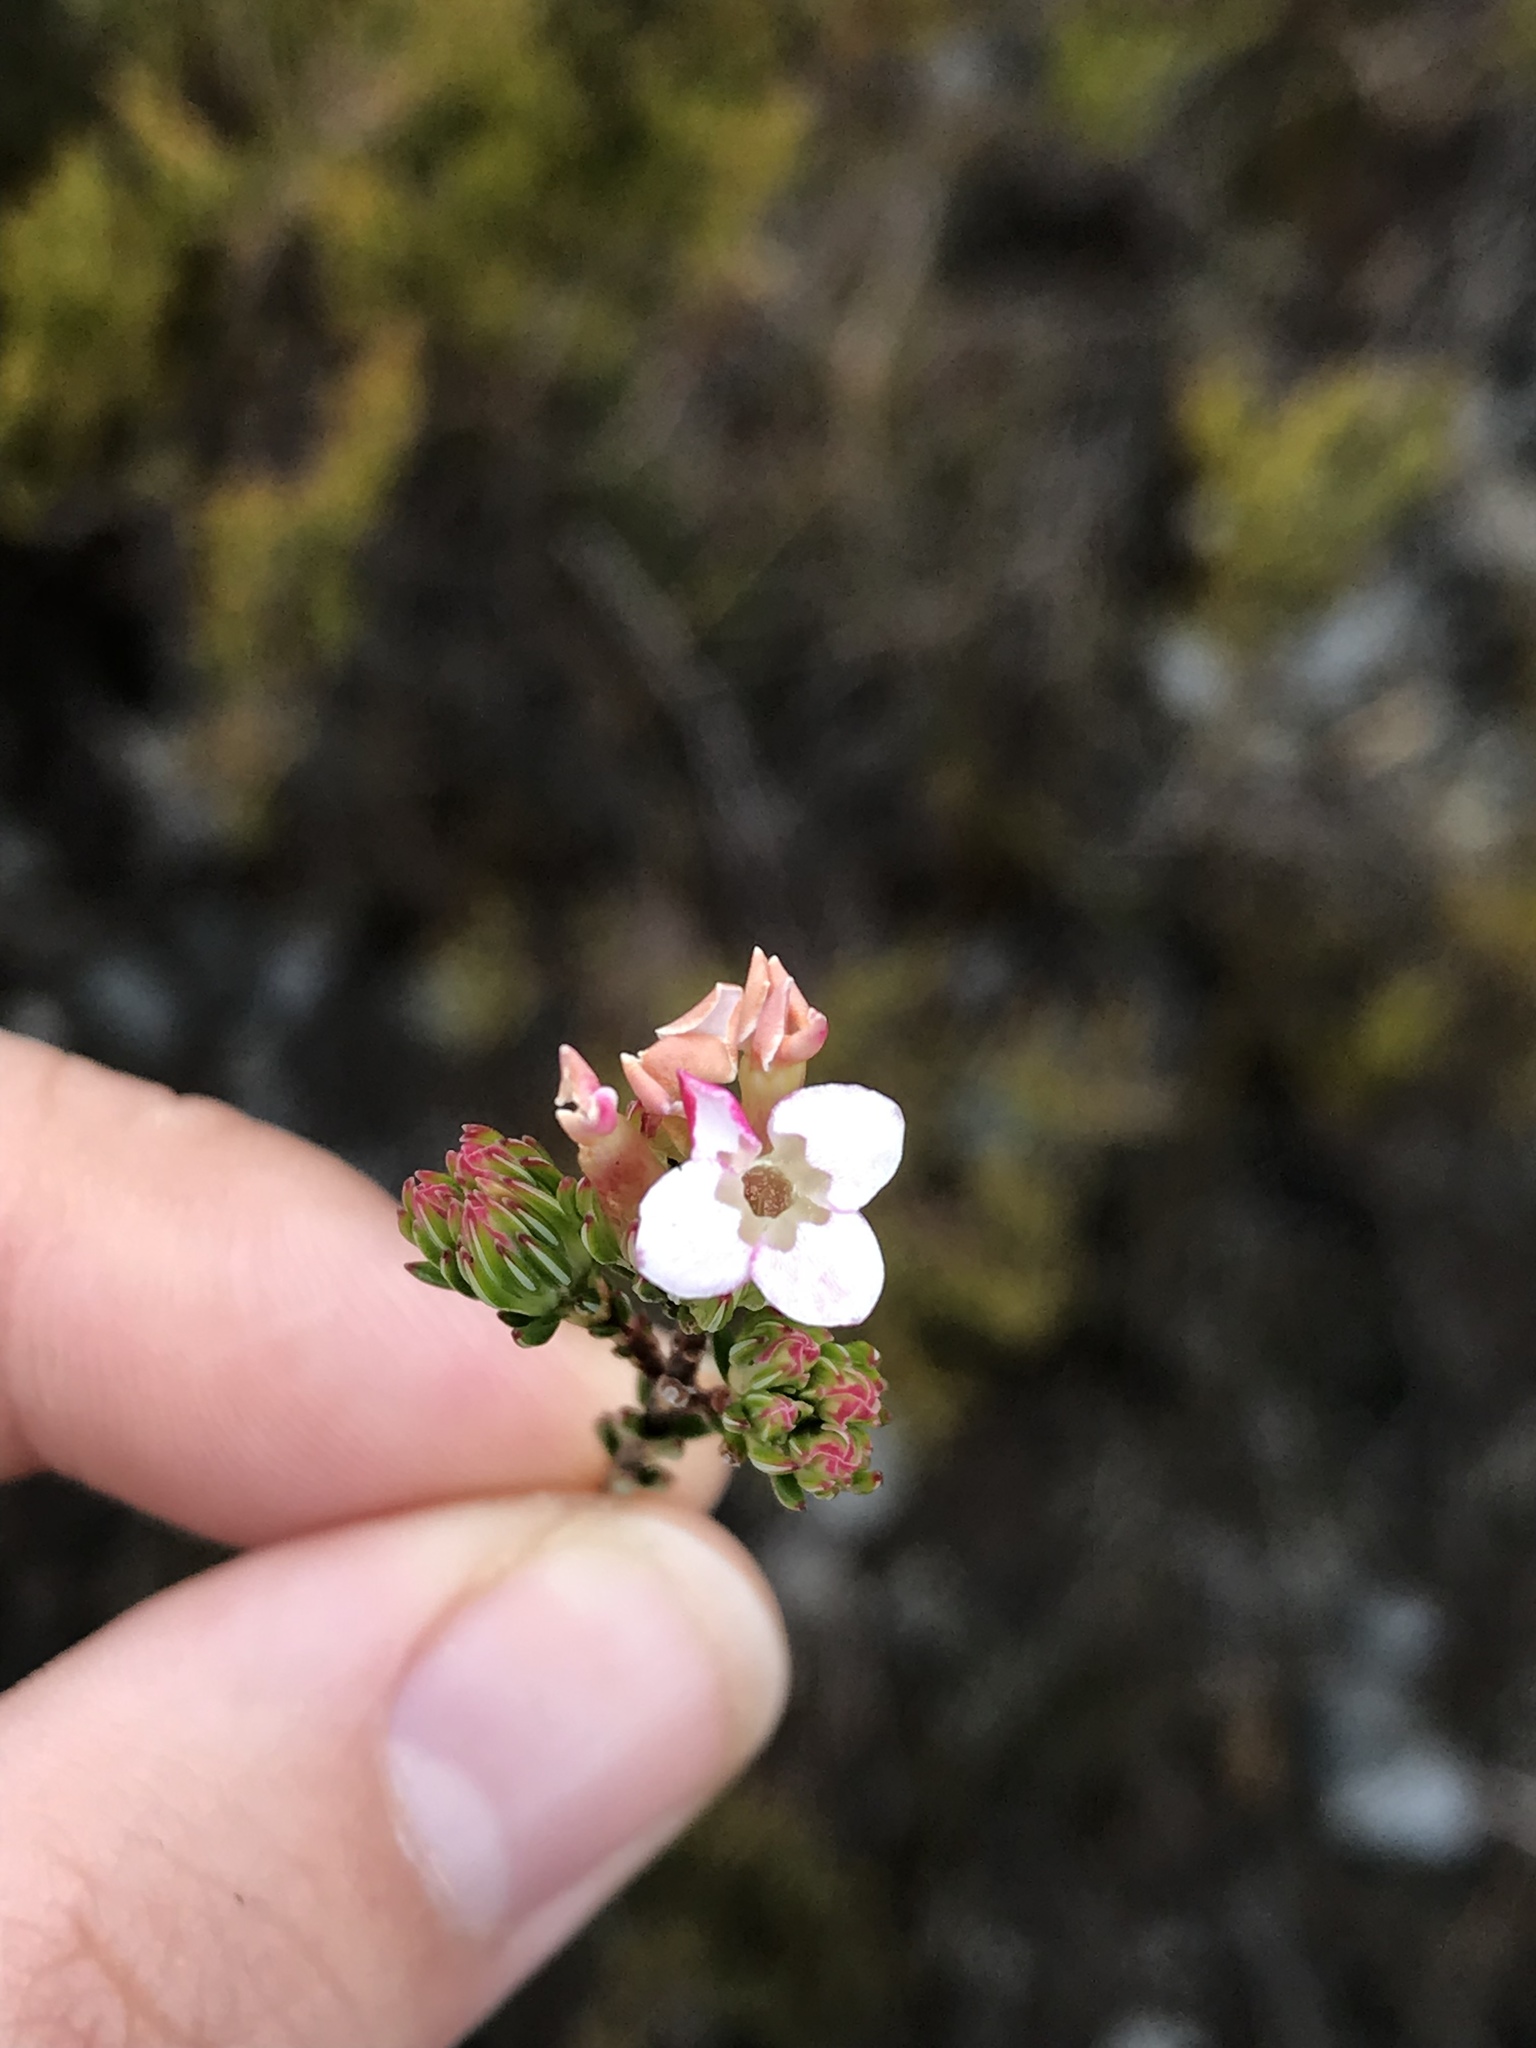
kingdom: Plantae
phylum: Tracheophyta
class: Magnoliopsida
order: Ericales
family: Ericaceae
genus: Erica
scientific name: Erica fastigiata
